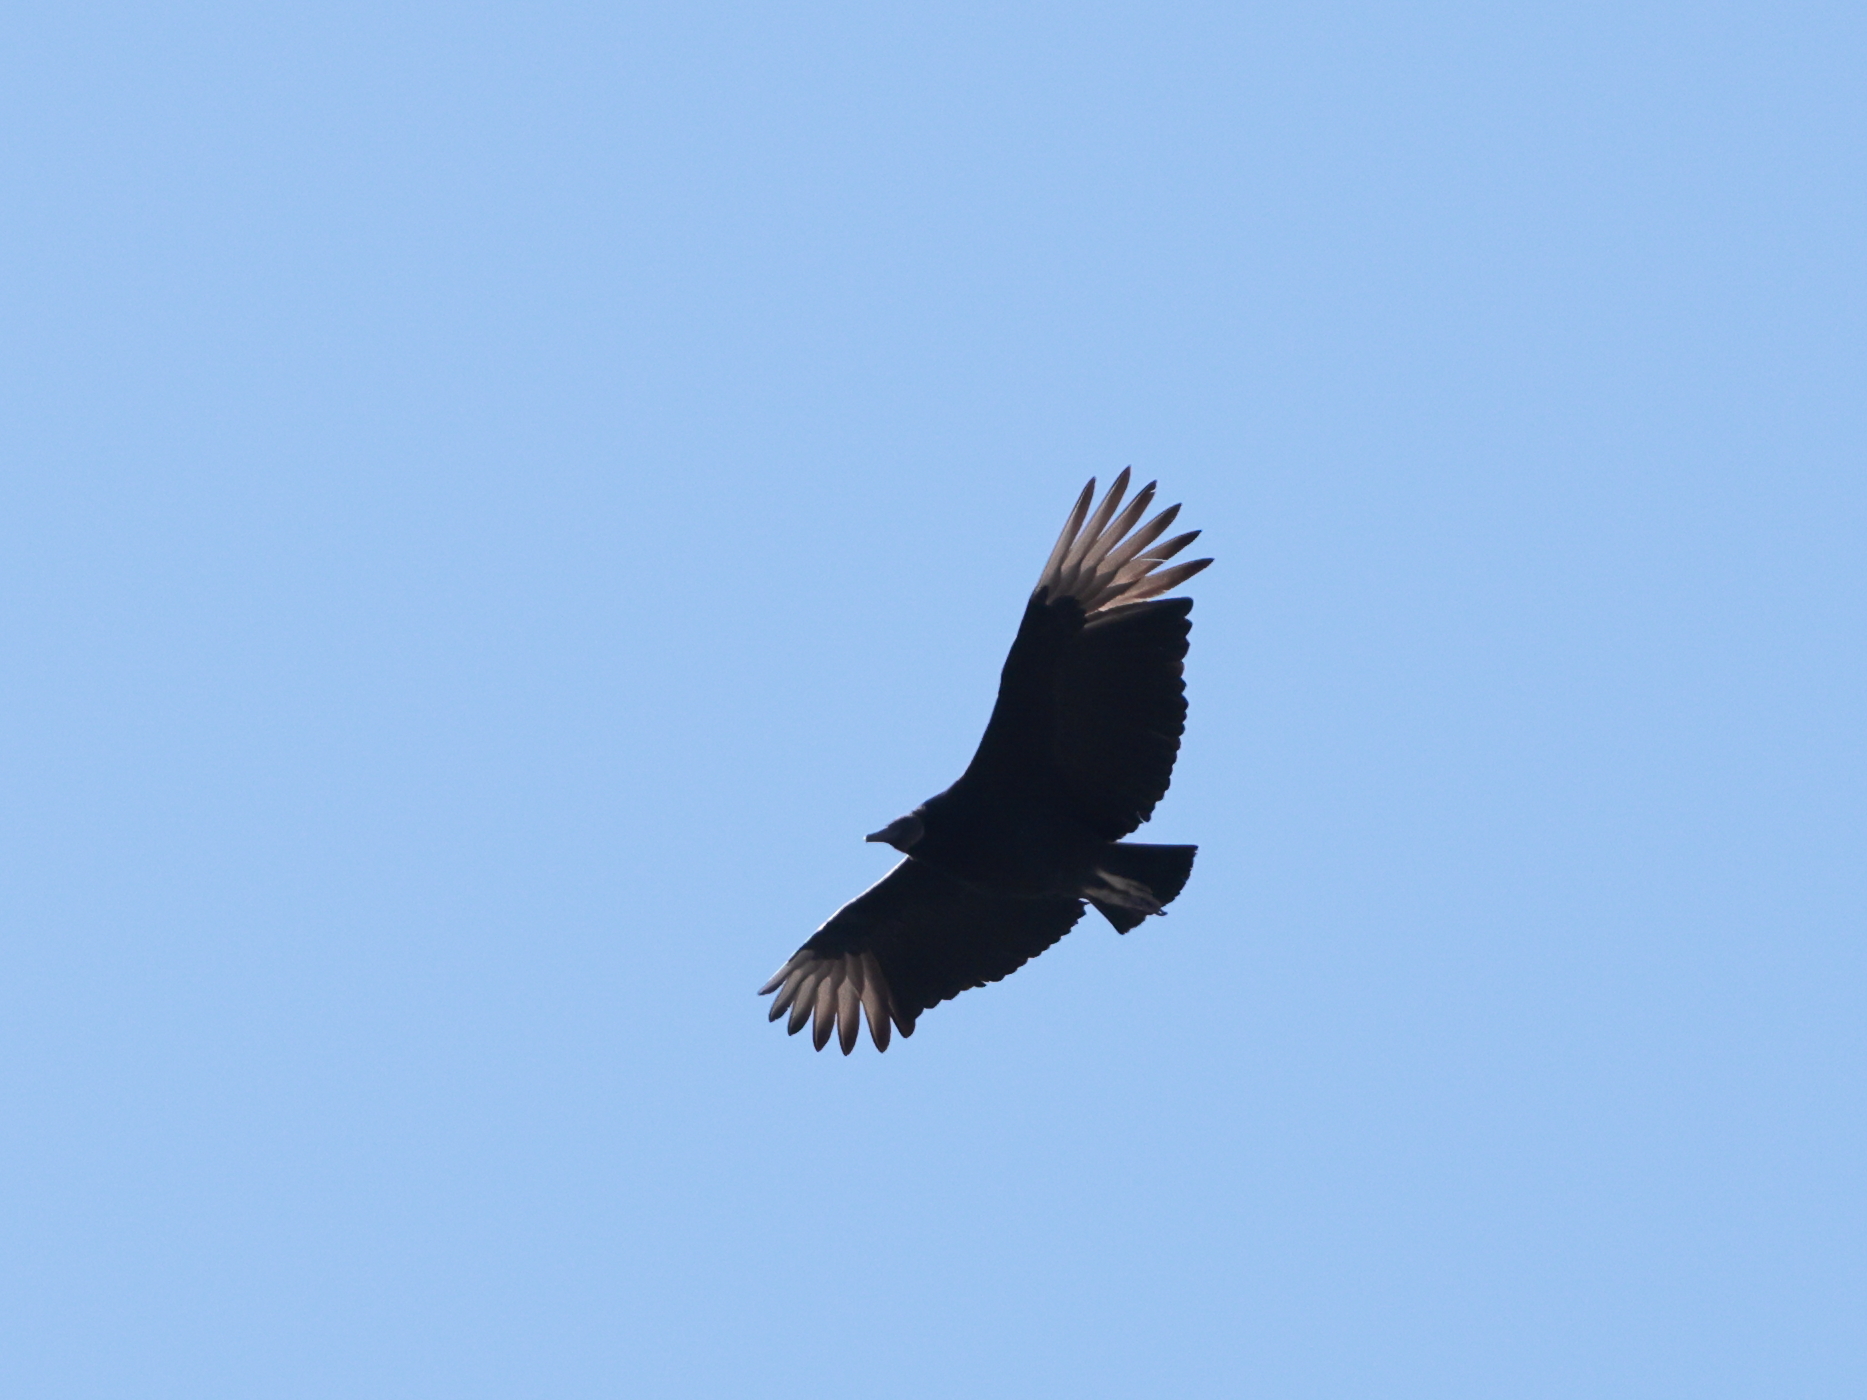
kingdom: Animalia
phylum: Chordata
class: Aves
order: Accipitriformes
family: Cathartidae
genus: Coragyps
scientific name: Coragyps atratus
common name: Black vulture
